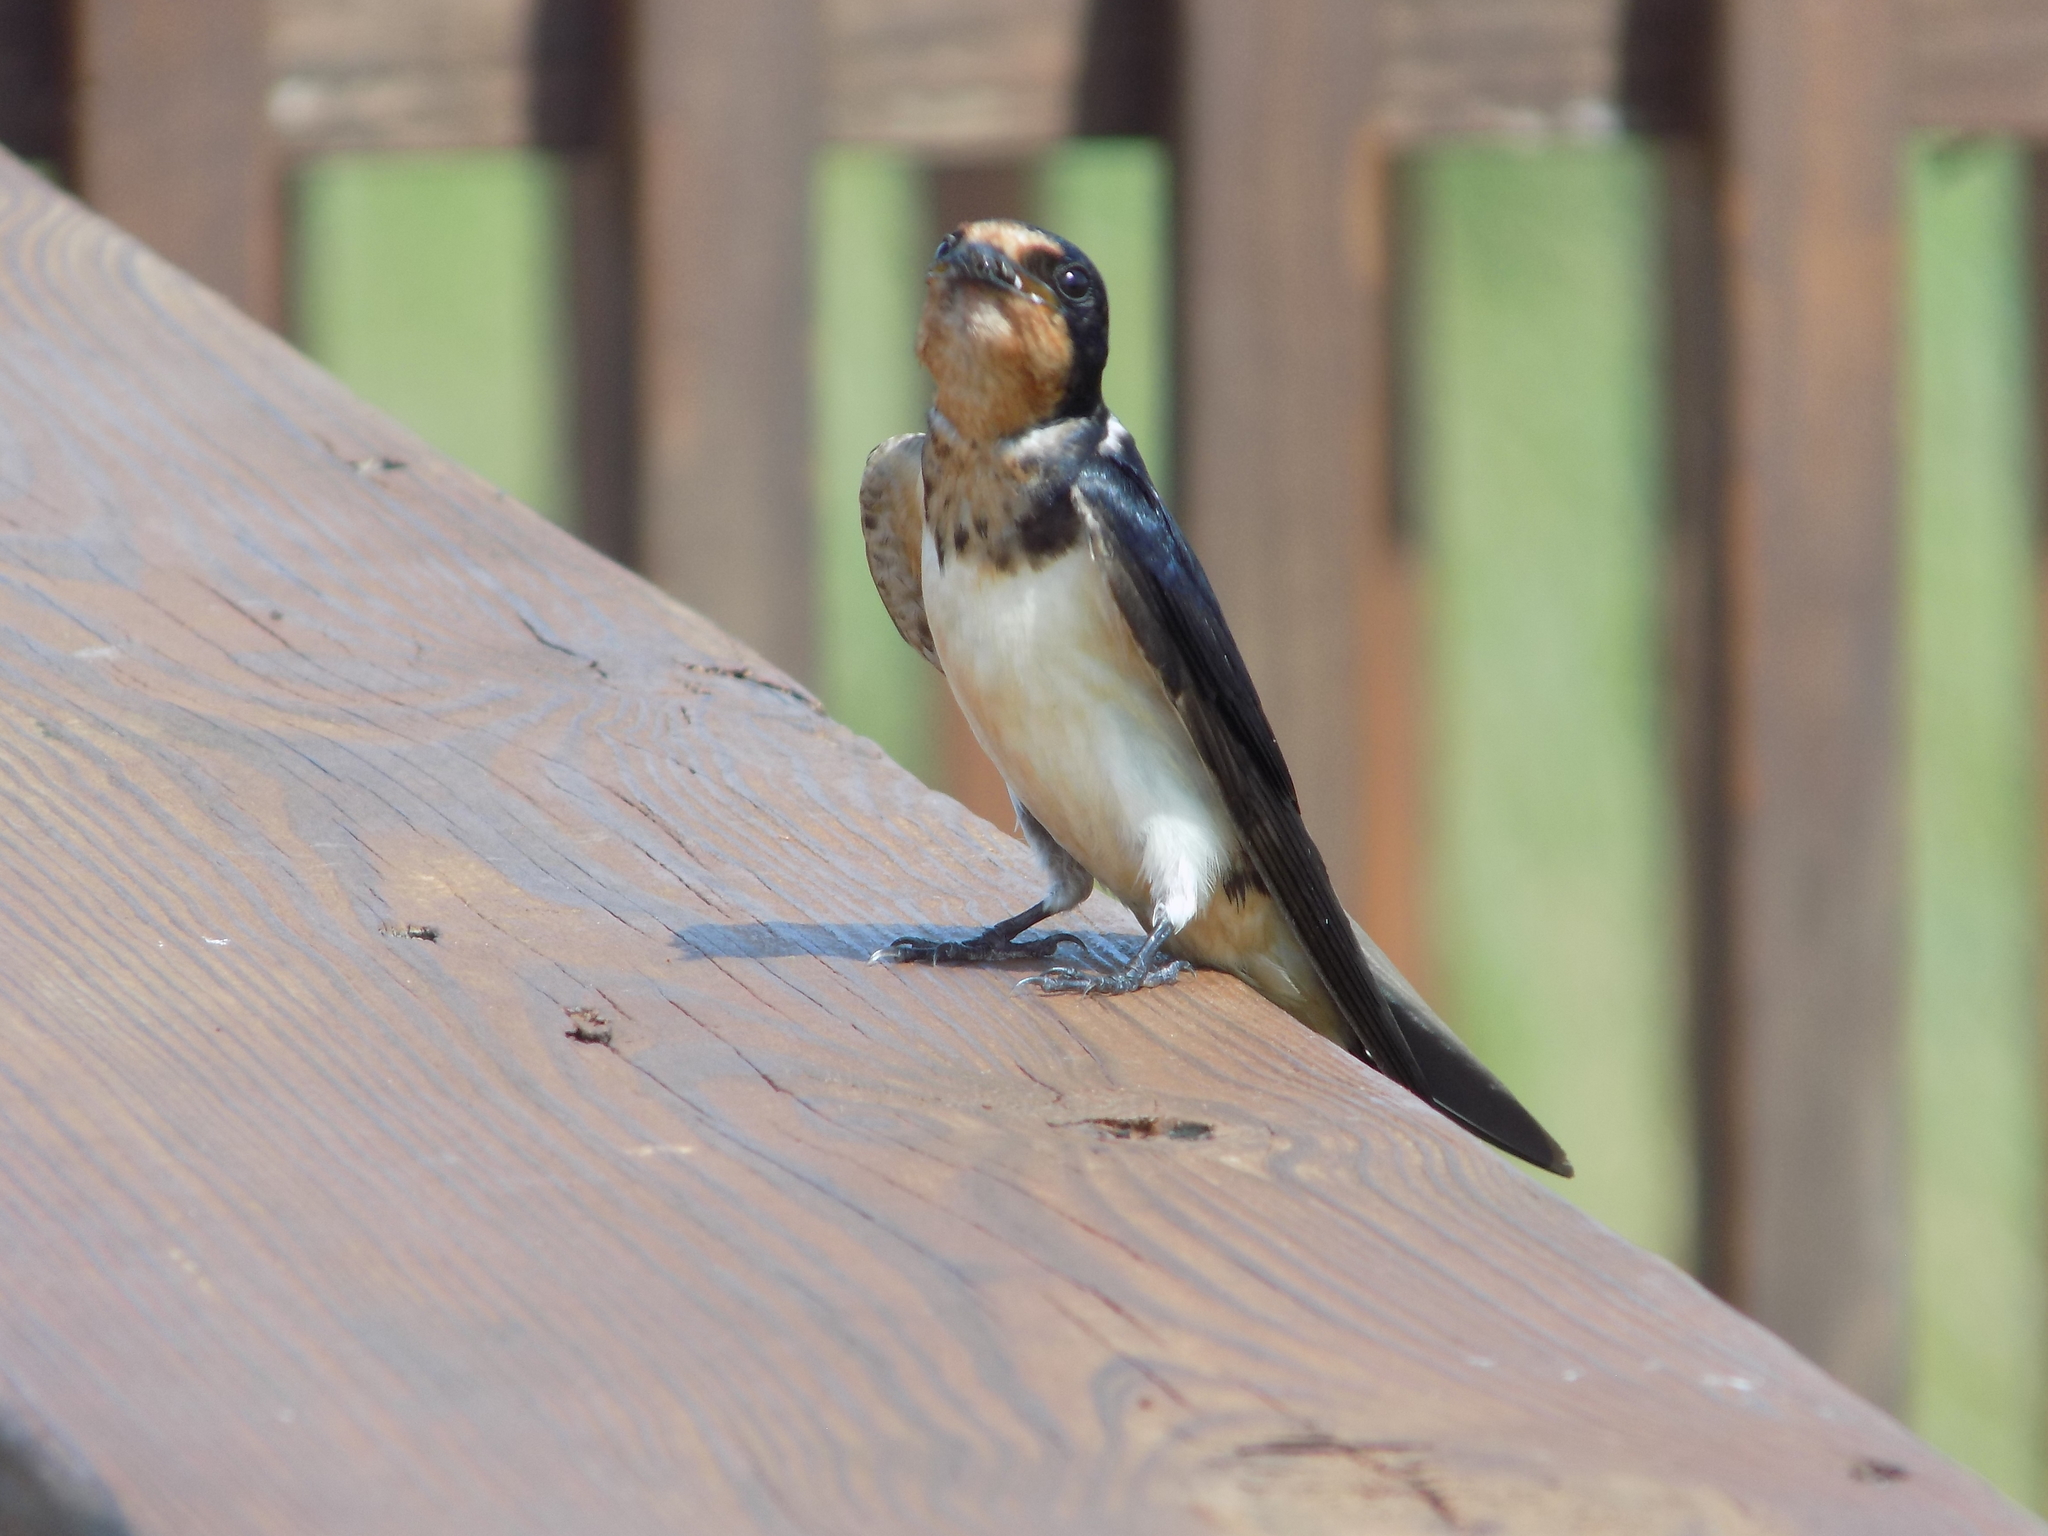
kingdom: Animalia
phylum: Chordata
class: Aves
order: Passeriformes
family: Hirundinidae
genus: Hirundo
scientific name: Hirundo rustica
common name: Barn swallow
